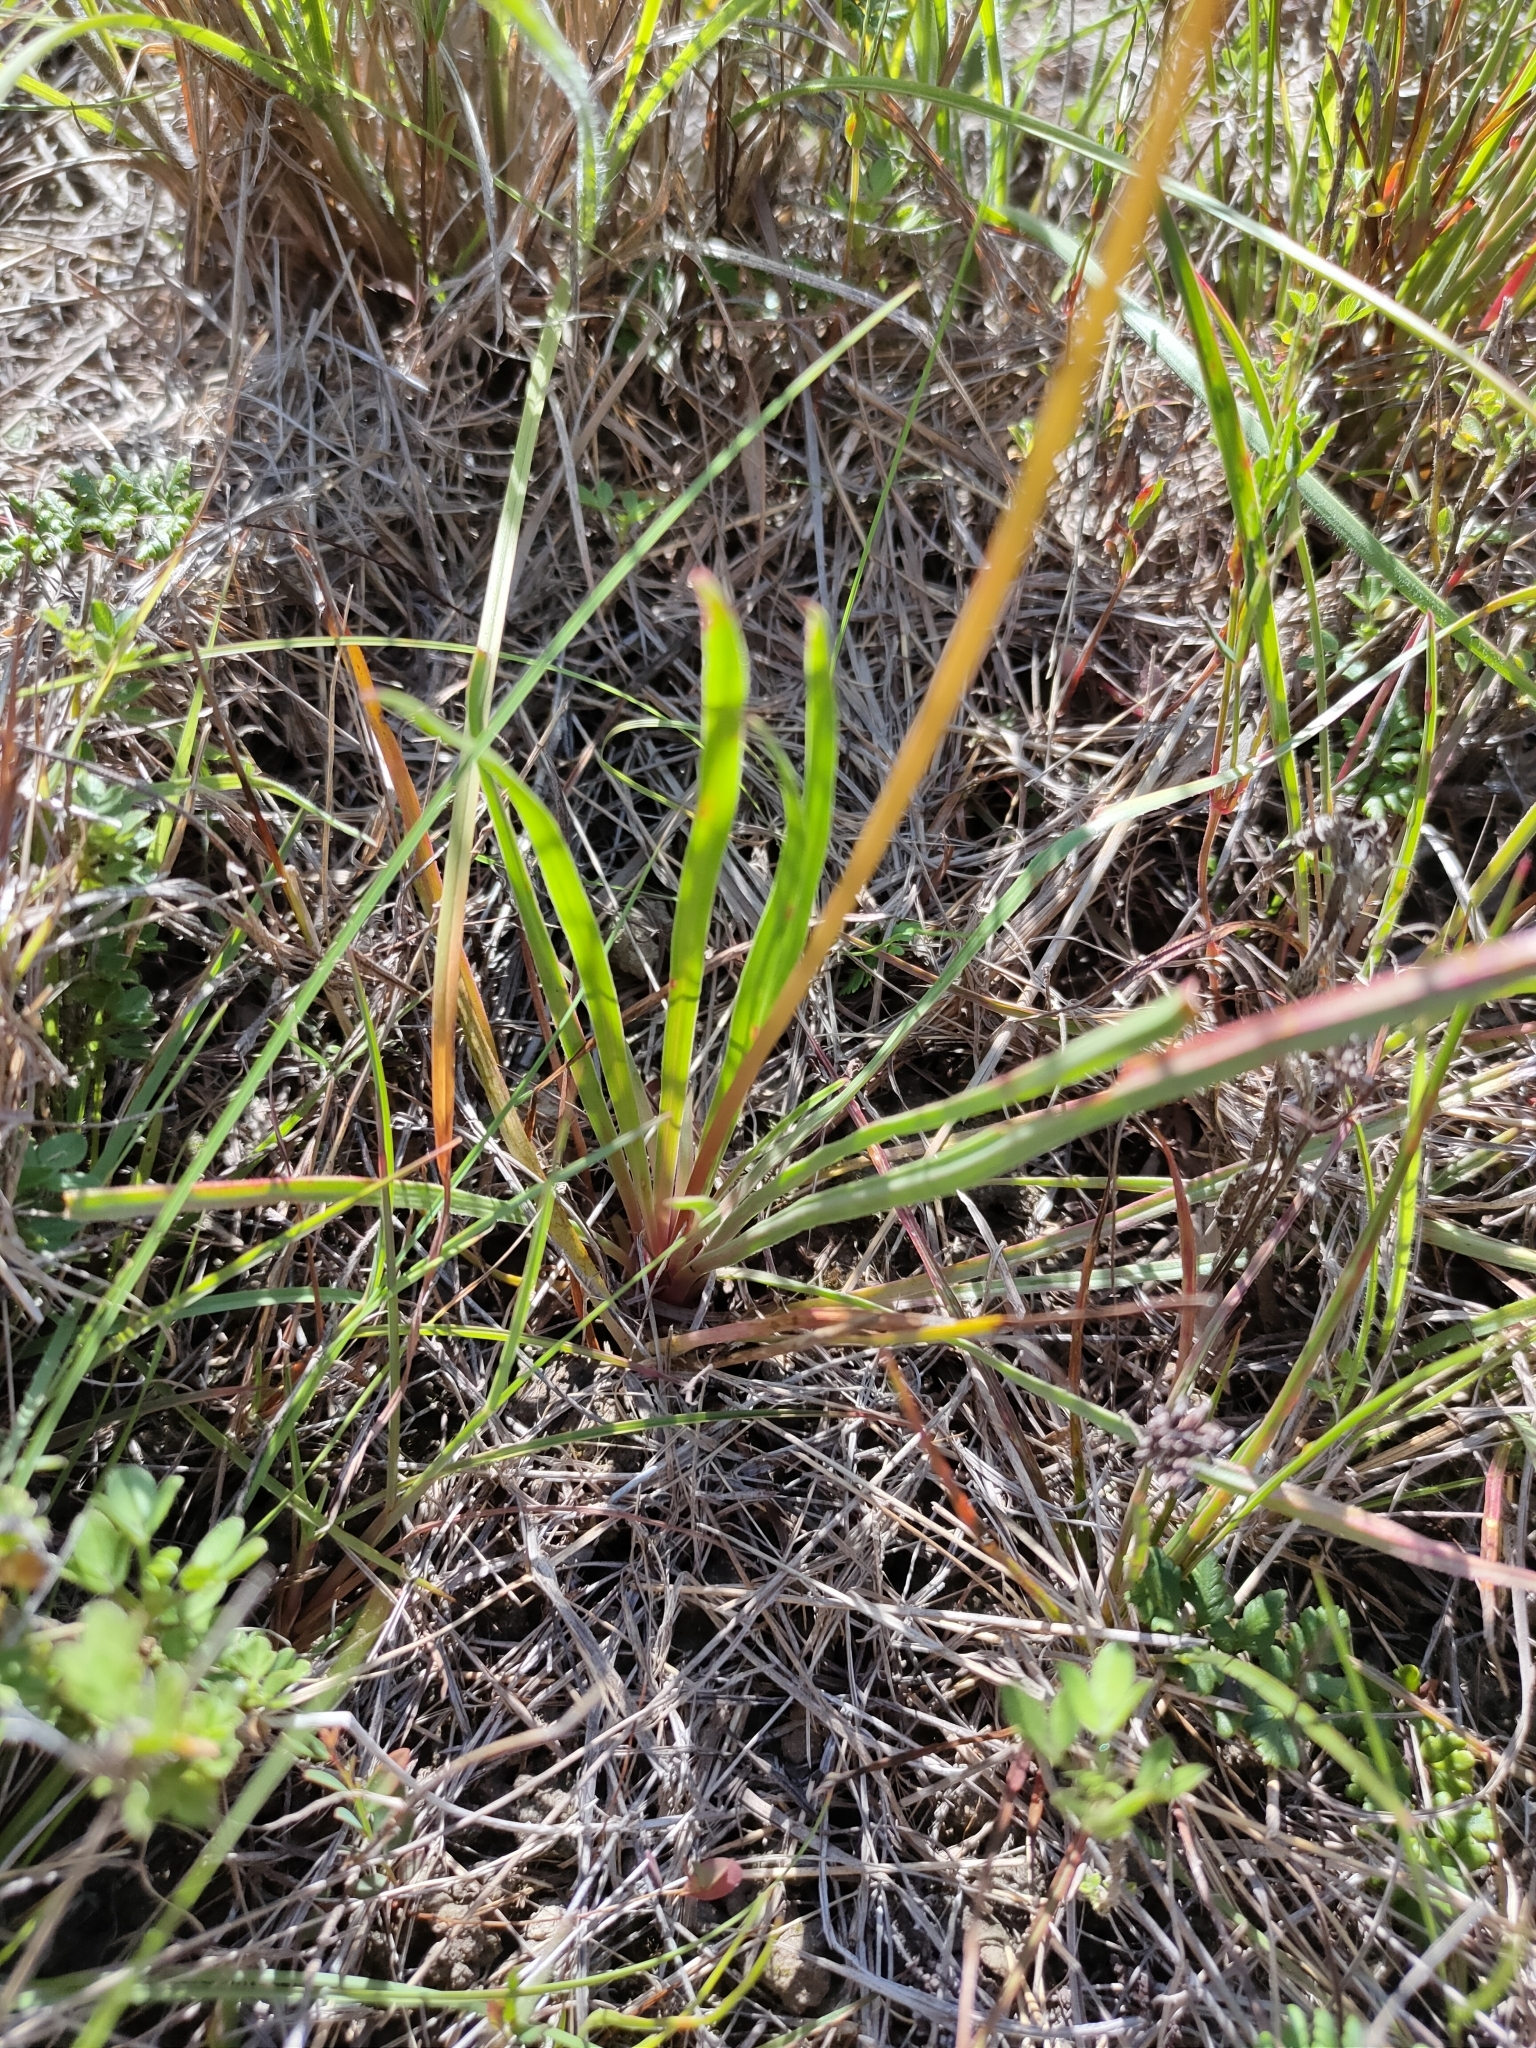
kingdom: Plantae
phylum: Tracheophyta
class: Magnoliopsida
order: Asterales
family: Stylidiaceae
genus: Stylidium
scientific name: Stylidium graminifolium
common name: Grass triggerplant
